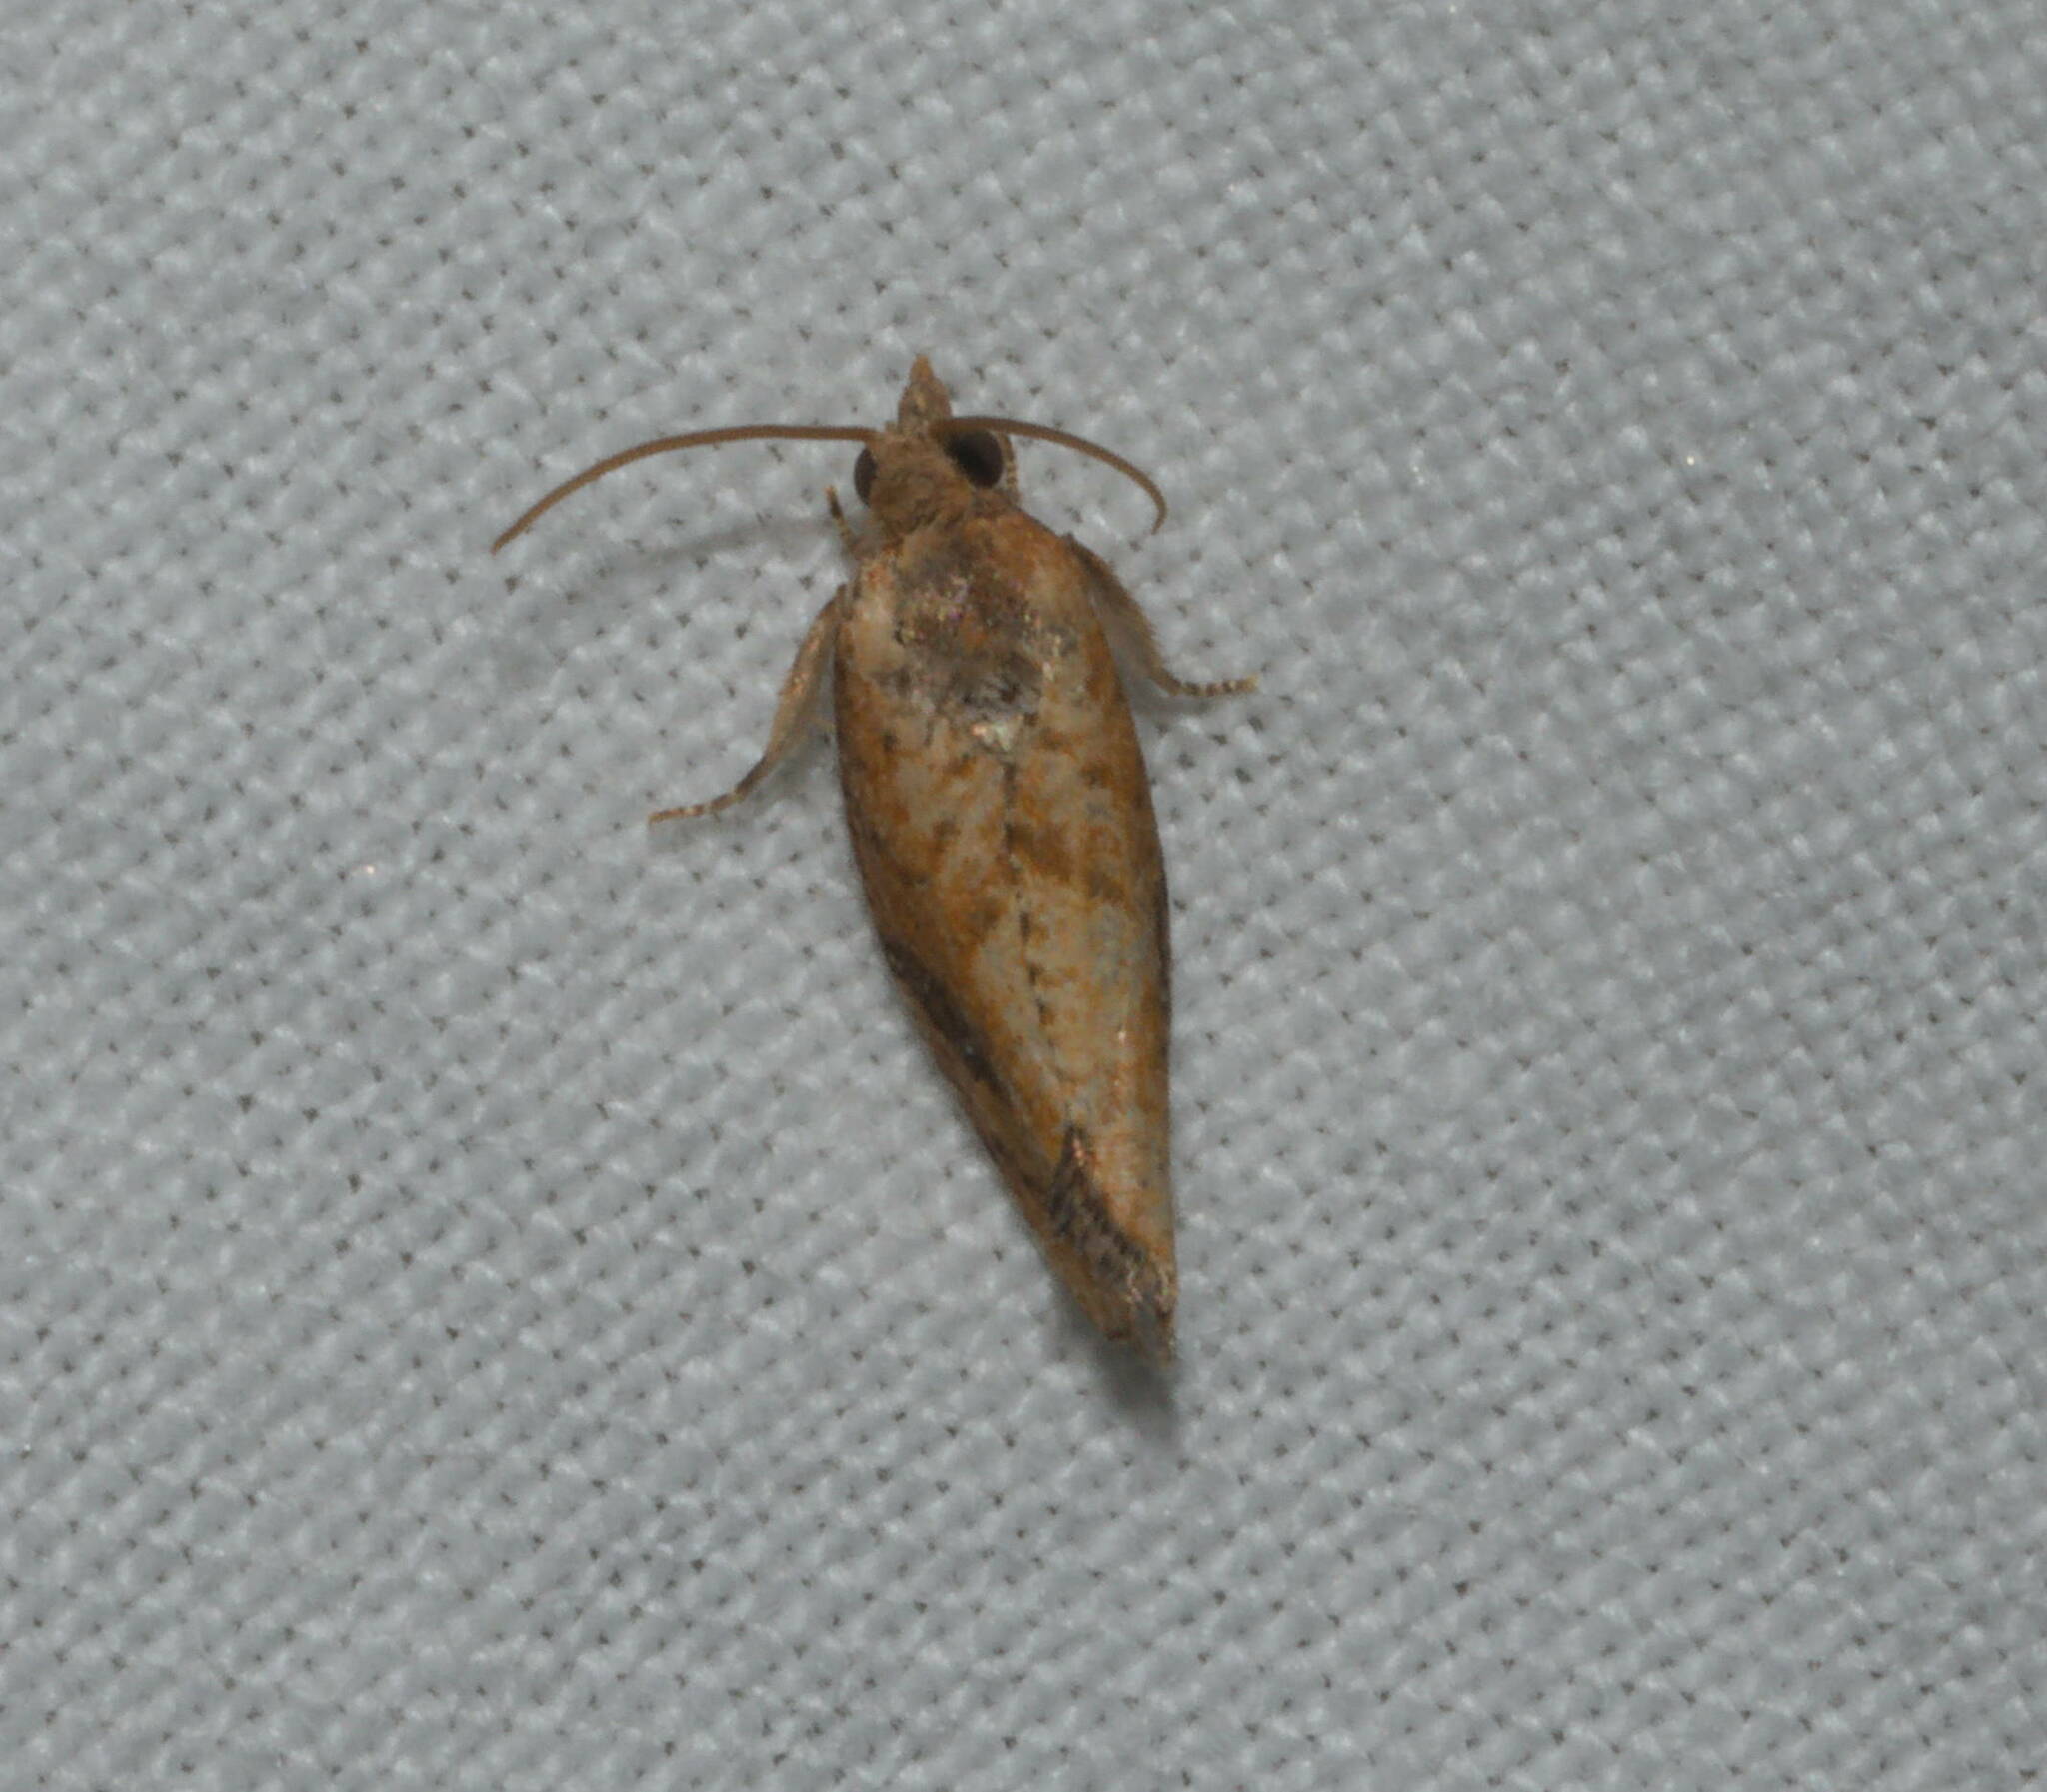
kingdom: Animalia
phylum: Arthropoda
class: Insecta
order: Lepidoptera
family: Tortricidae
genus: Cryptophlebia
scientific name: Cryptophlebia illepida
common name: Moth
